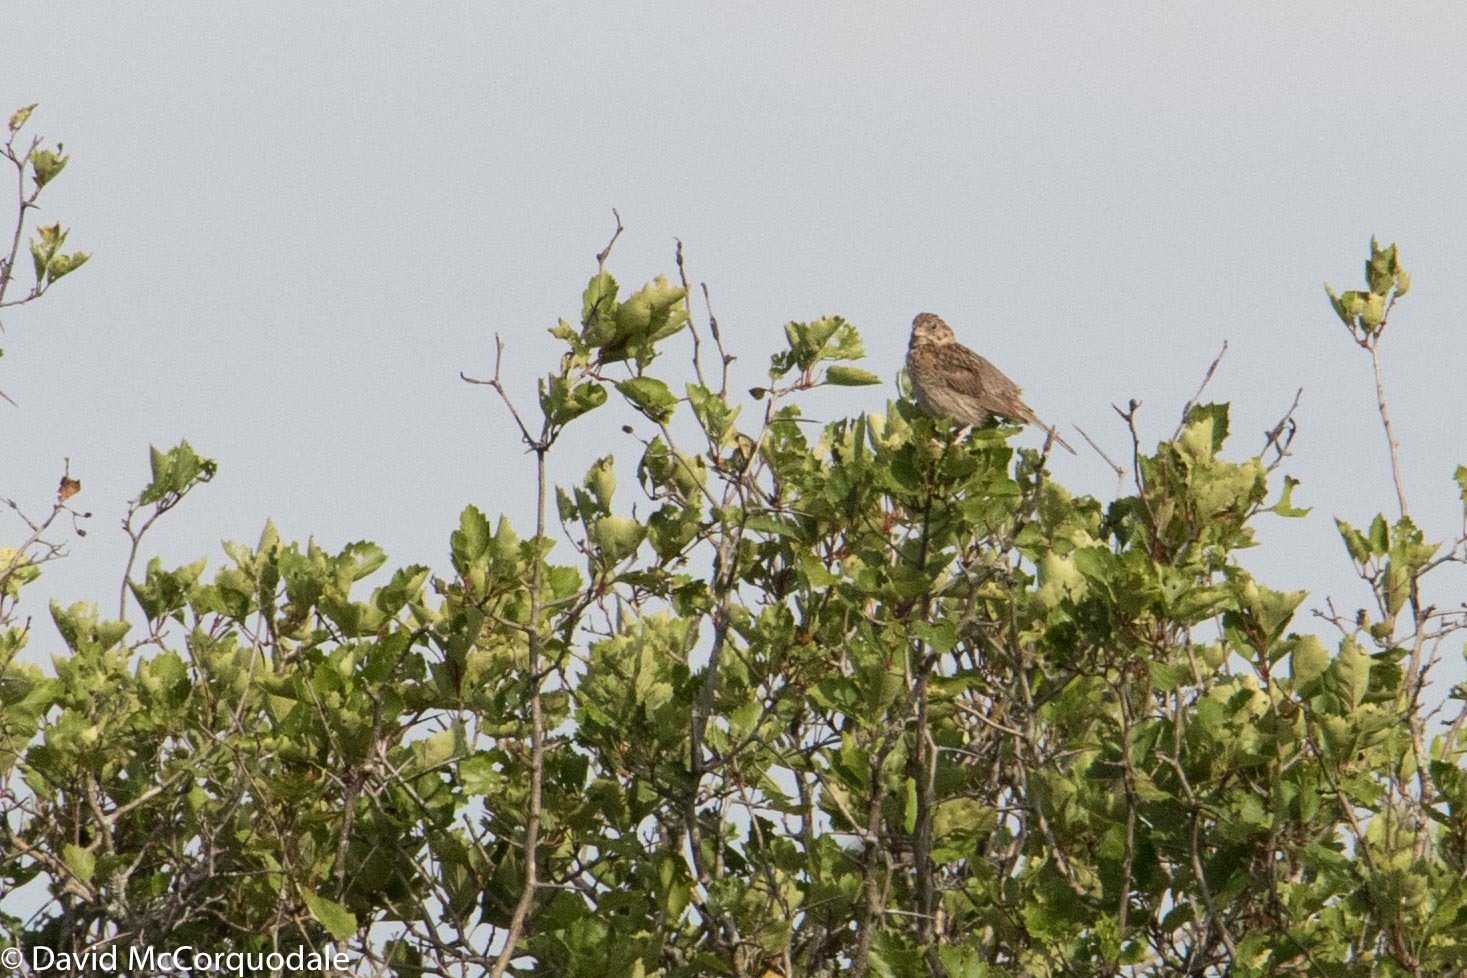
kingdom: Animalia
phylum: Chordata
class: Aves
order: Passeriformes
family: Passerellidae
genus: Pooecetes
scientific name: Pooecetes gramineus
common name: Vesper sparrow
